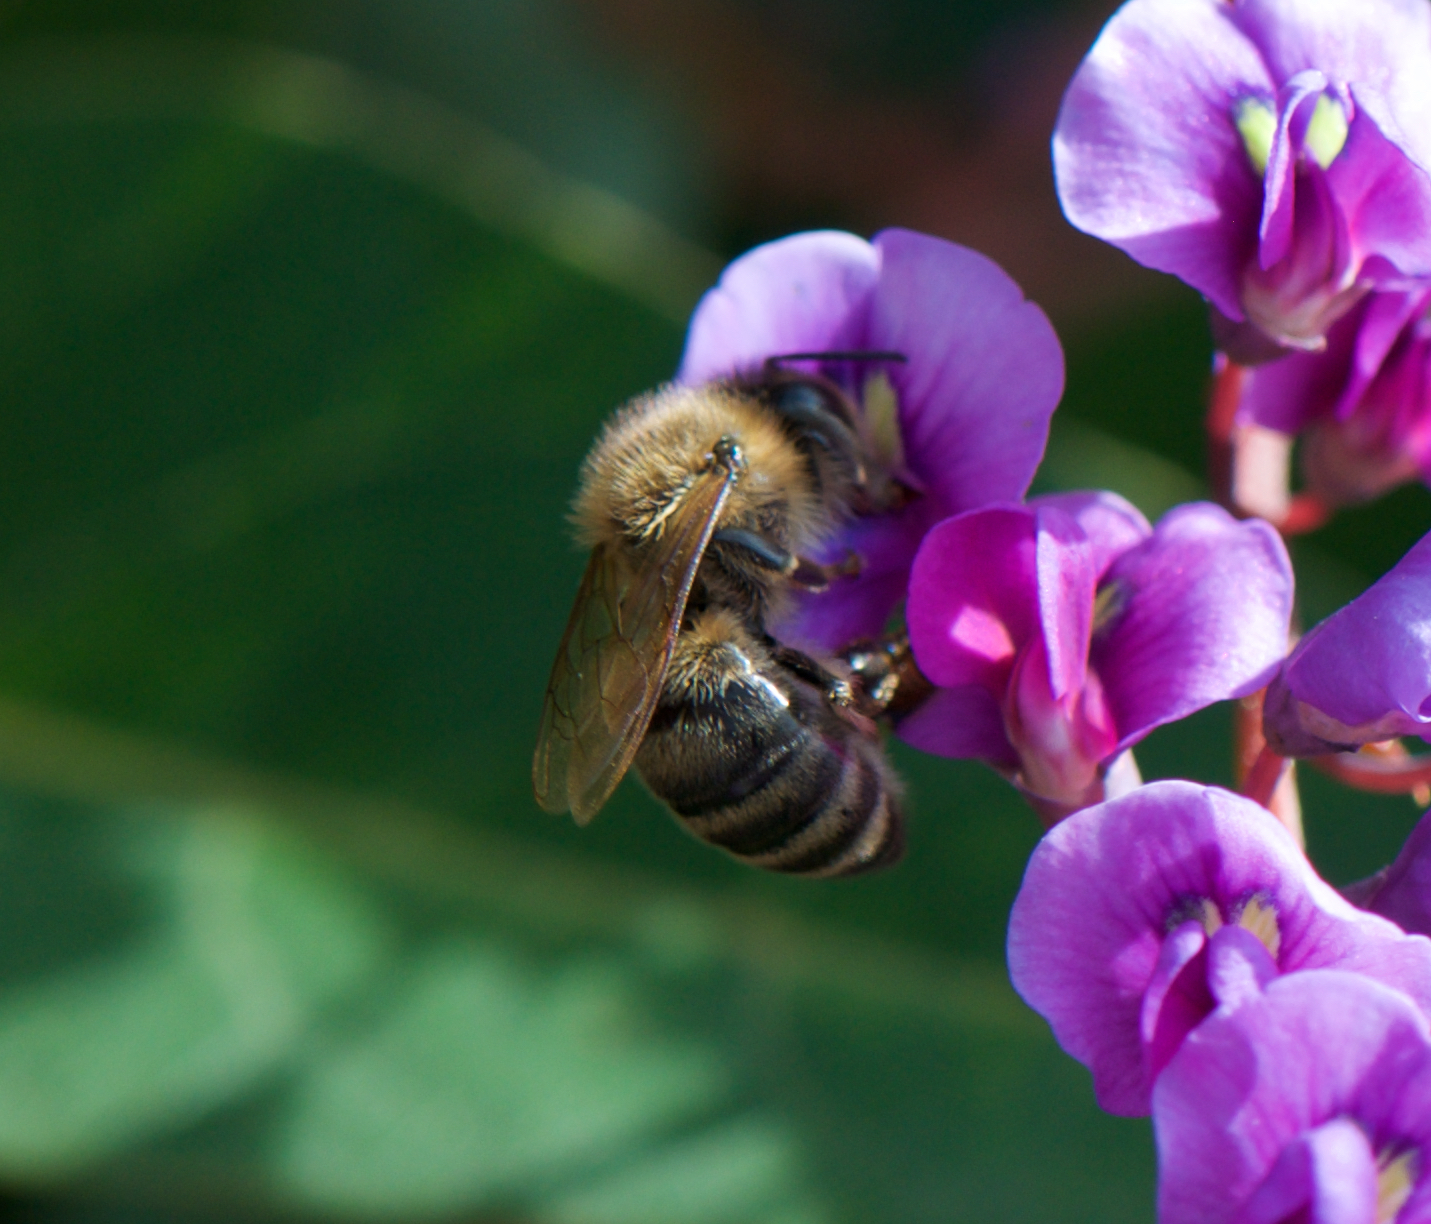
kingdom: Animalia
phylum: Arthropoda
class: Insecta
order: Hymenoptera
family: Apidae
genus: Apis
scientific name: Apis mellifera
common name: Honey bee
